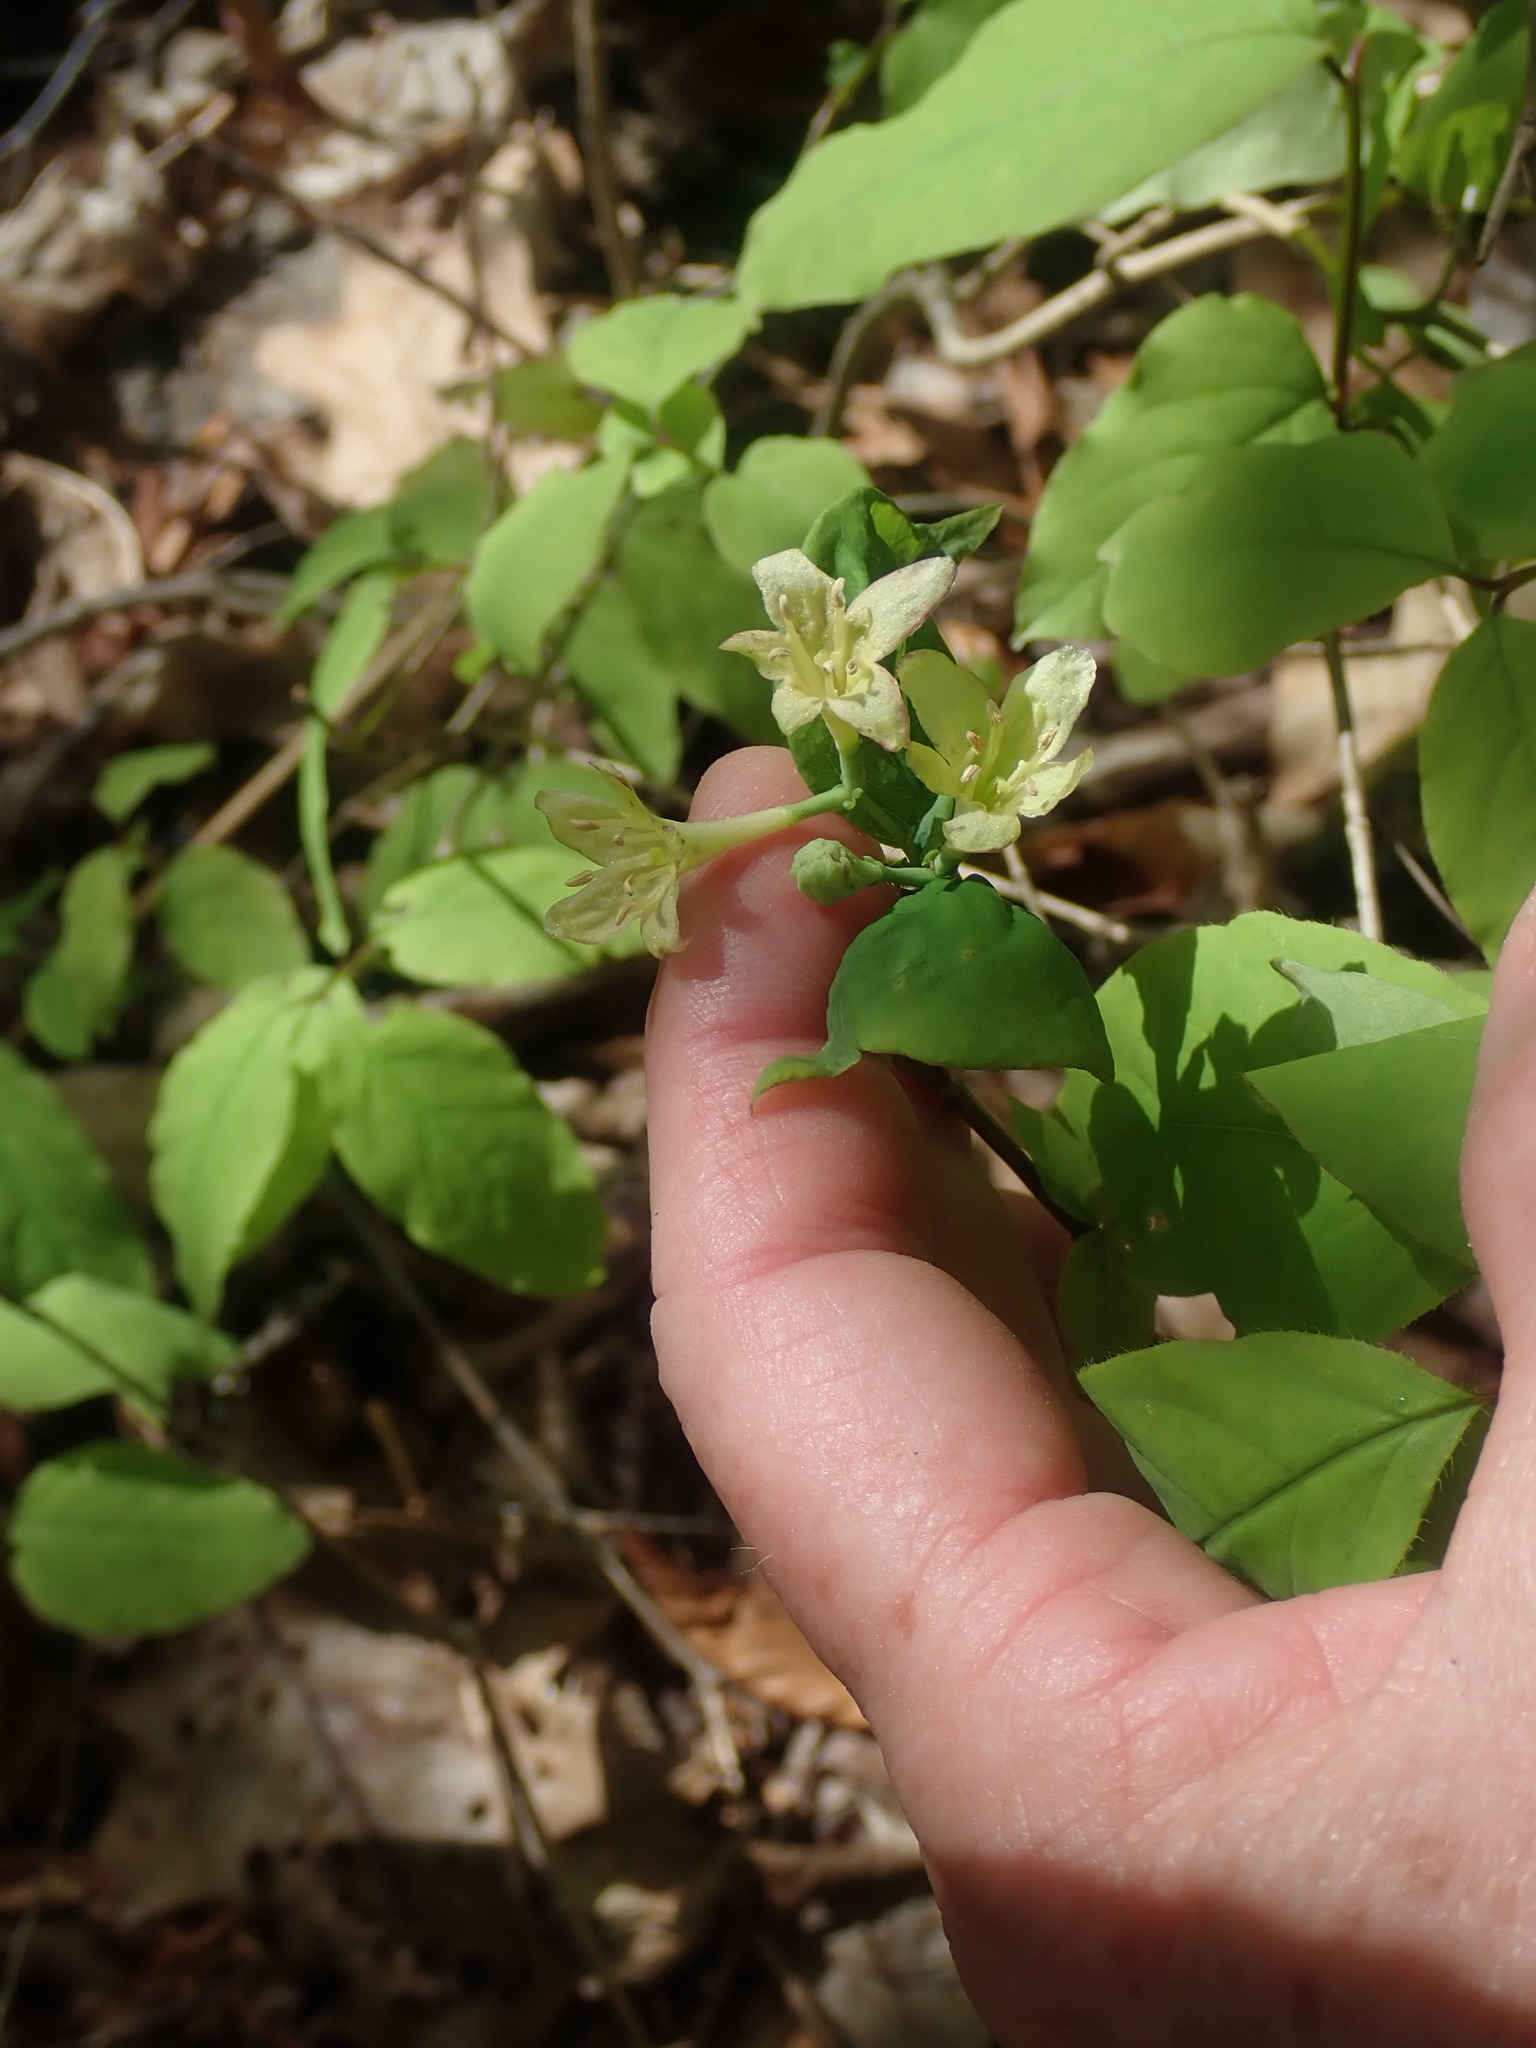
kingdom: Plantae
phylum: Tracheophyta
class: Magnoliopsida
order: Dipsacales
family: Caprifoliaceae
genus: Lonicera
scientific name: Lonicera canadensis
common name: American fly-honeysuckle
